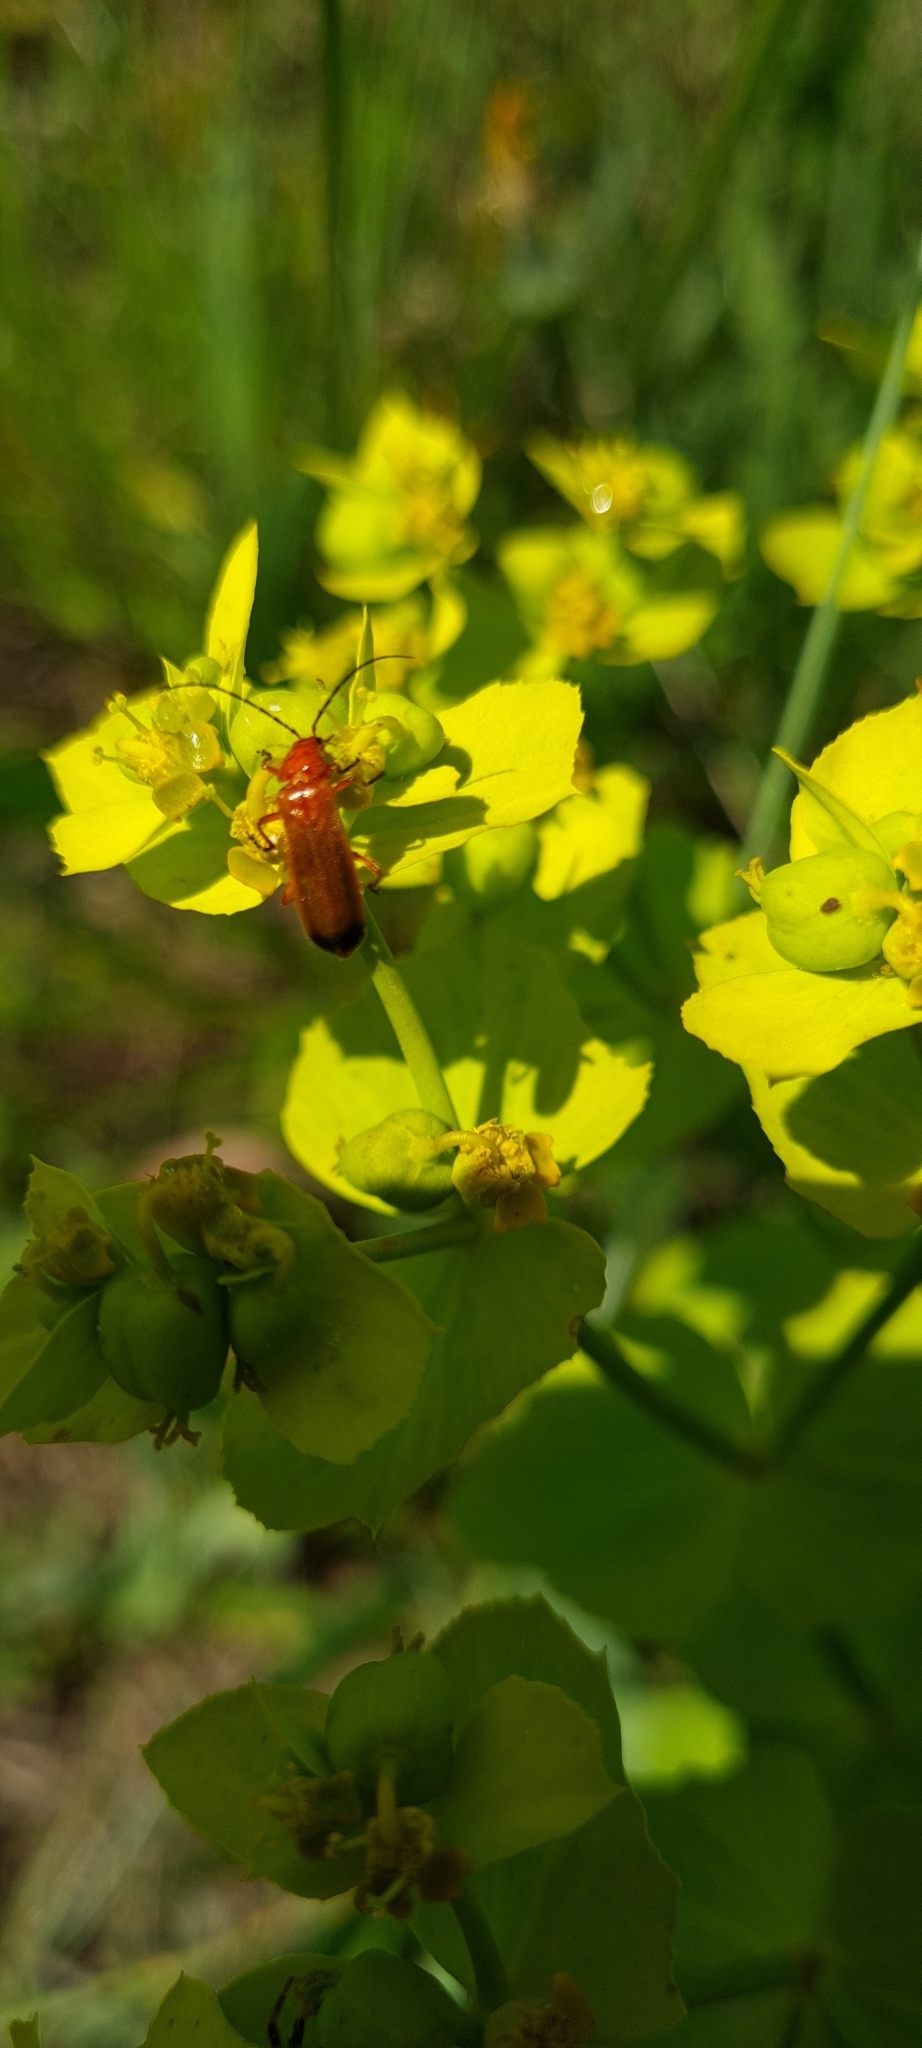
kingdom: Animalia
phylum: Arthropoda
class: Insecta
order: Coleoptera
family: Cantharidae
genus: Rhagonycha
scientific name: Rhagonycha fulva
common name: Common red soldier beetle
